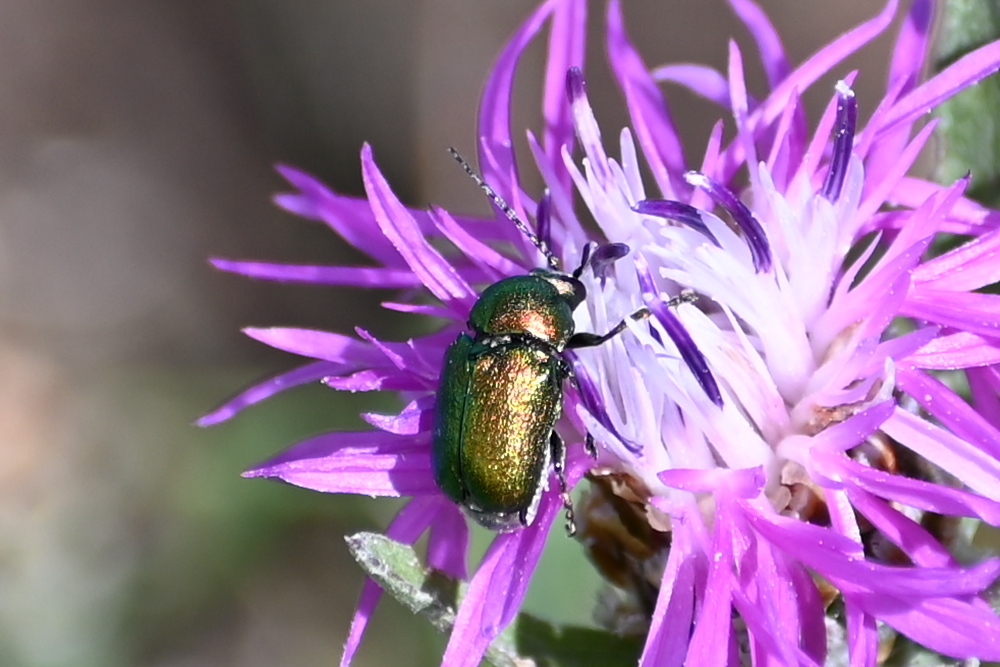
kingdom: Animalia
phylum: Arthropoda
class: Insecta
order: Coleoptera
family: Chrysomelidae
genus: Cryptocephalus
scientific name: Cryptocephalus sericeus
